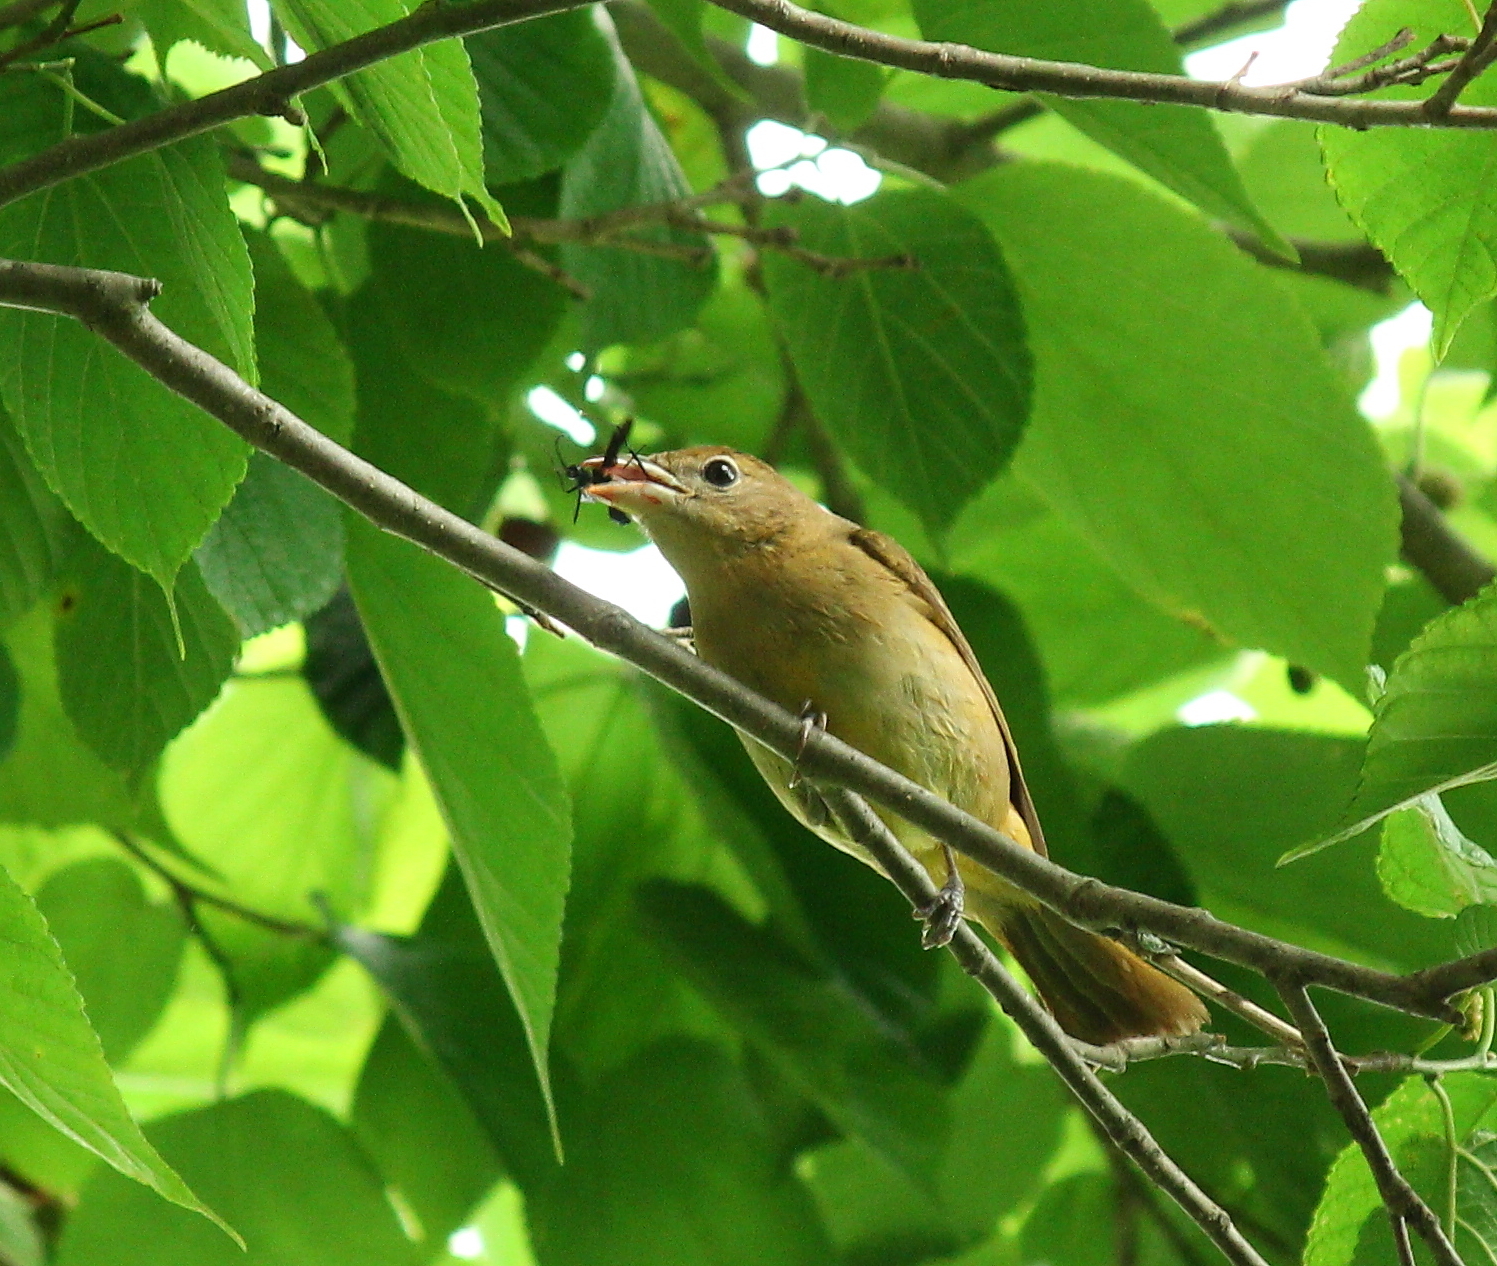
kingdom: Animalia
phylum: Chordata
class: Aves
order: Passeriformes
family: Cardinalidae
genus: Piranga
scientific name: Piranga rubra
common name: Summer tanager
